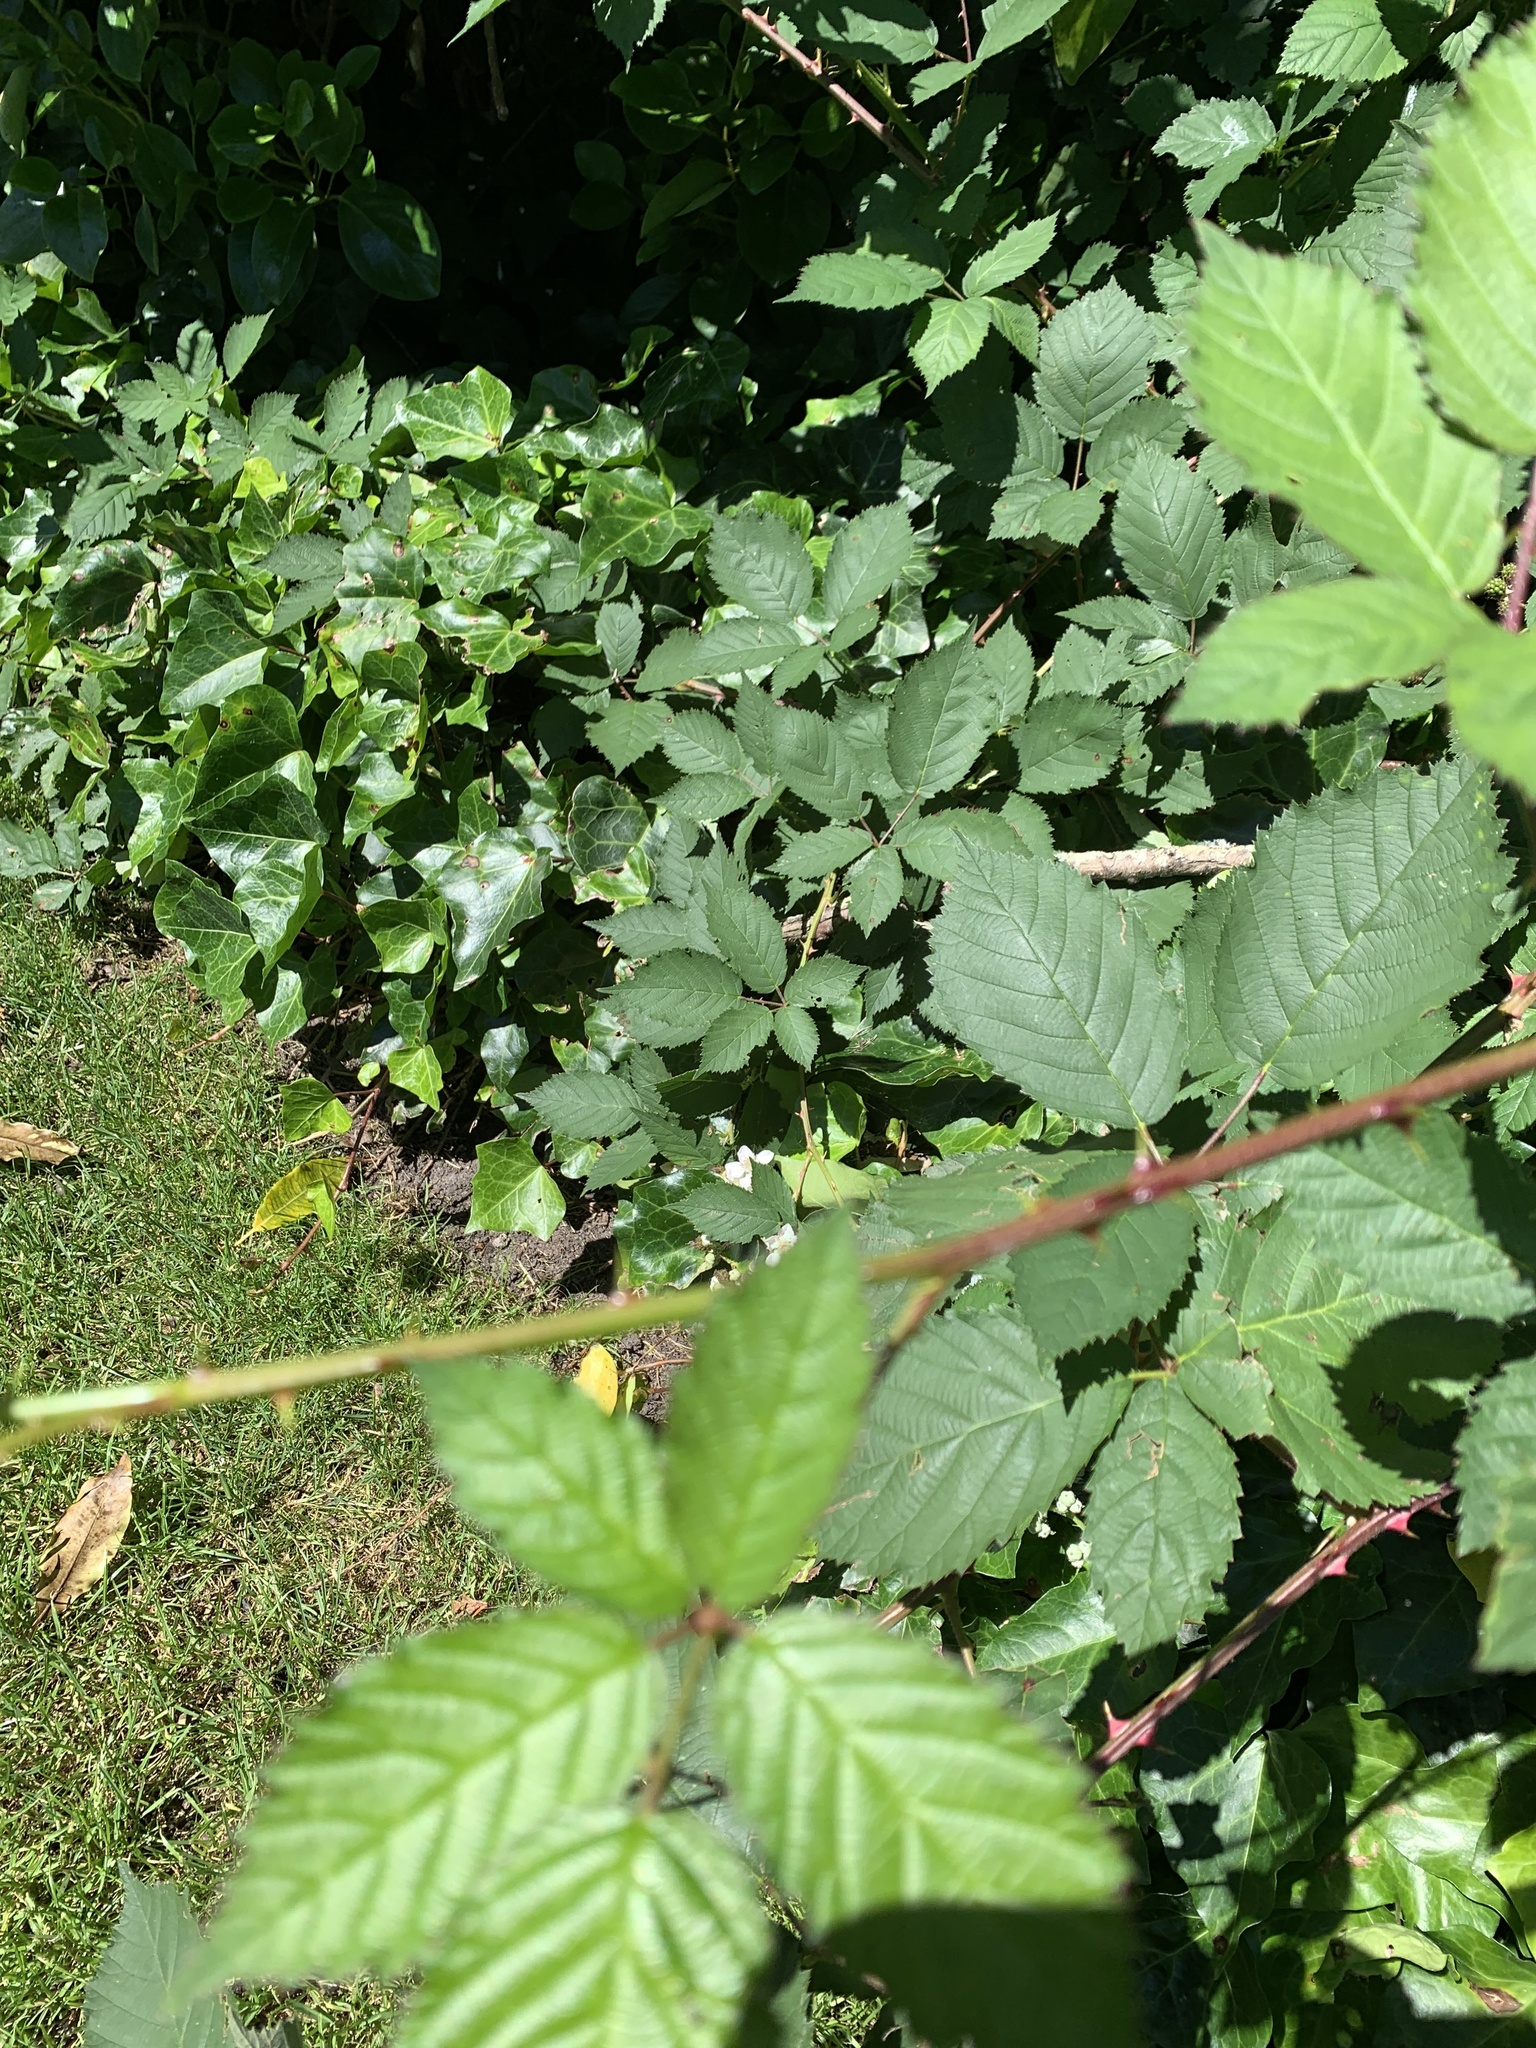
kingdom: Plantae
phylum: Tracheophyta
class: Magnoliopsida
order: Rosales
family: Rosaceae
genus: Rubus
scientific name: Rubus bifrons
